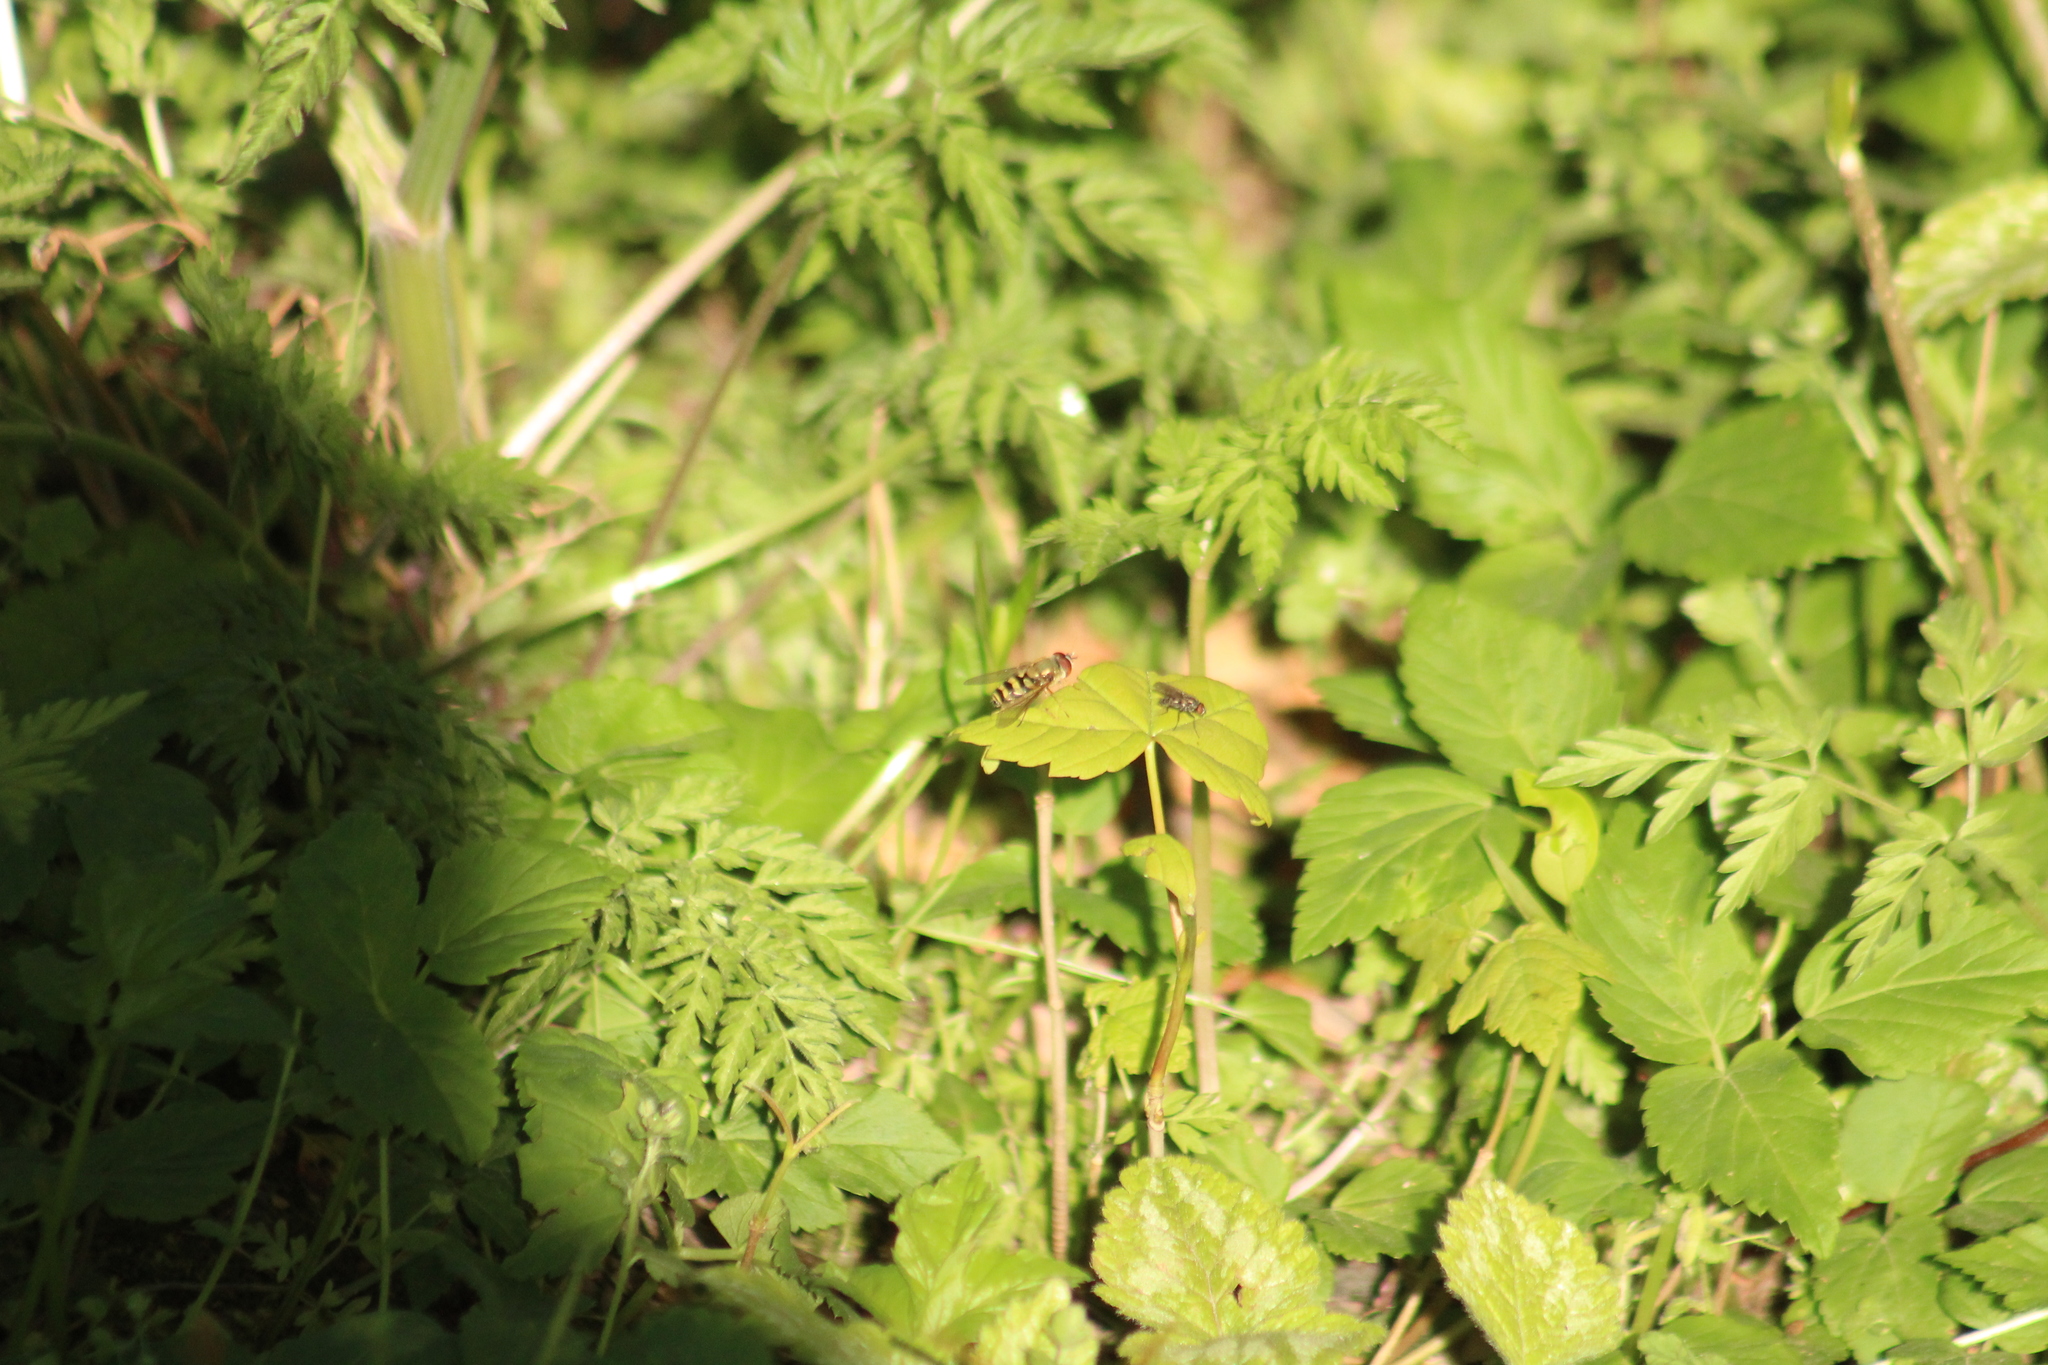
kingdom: Animalia
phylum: Arthropoda
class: Insecta
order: Diptera
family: Syrphidae
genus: Syrphus
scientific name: Syrphus
